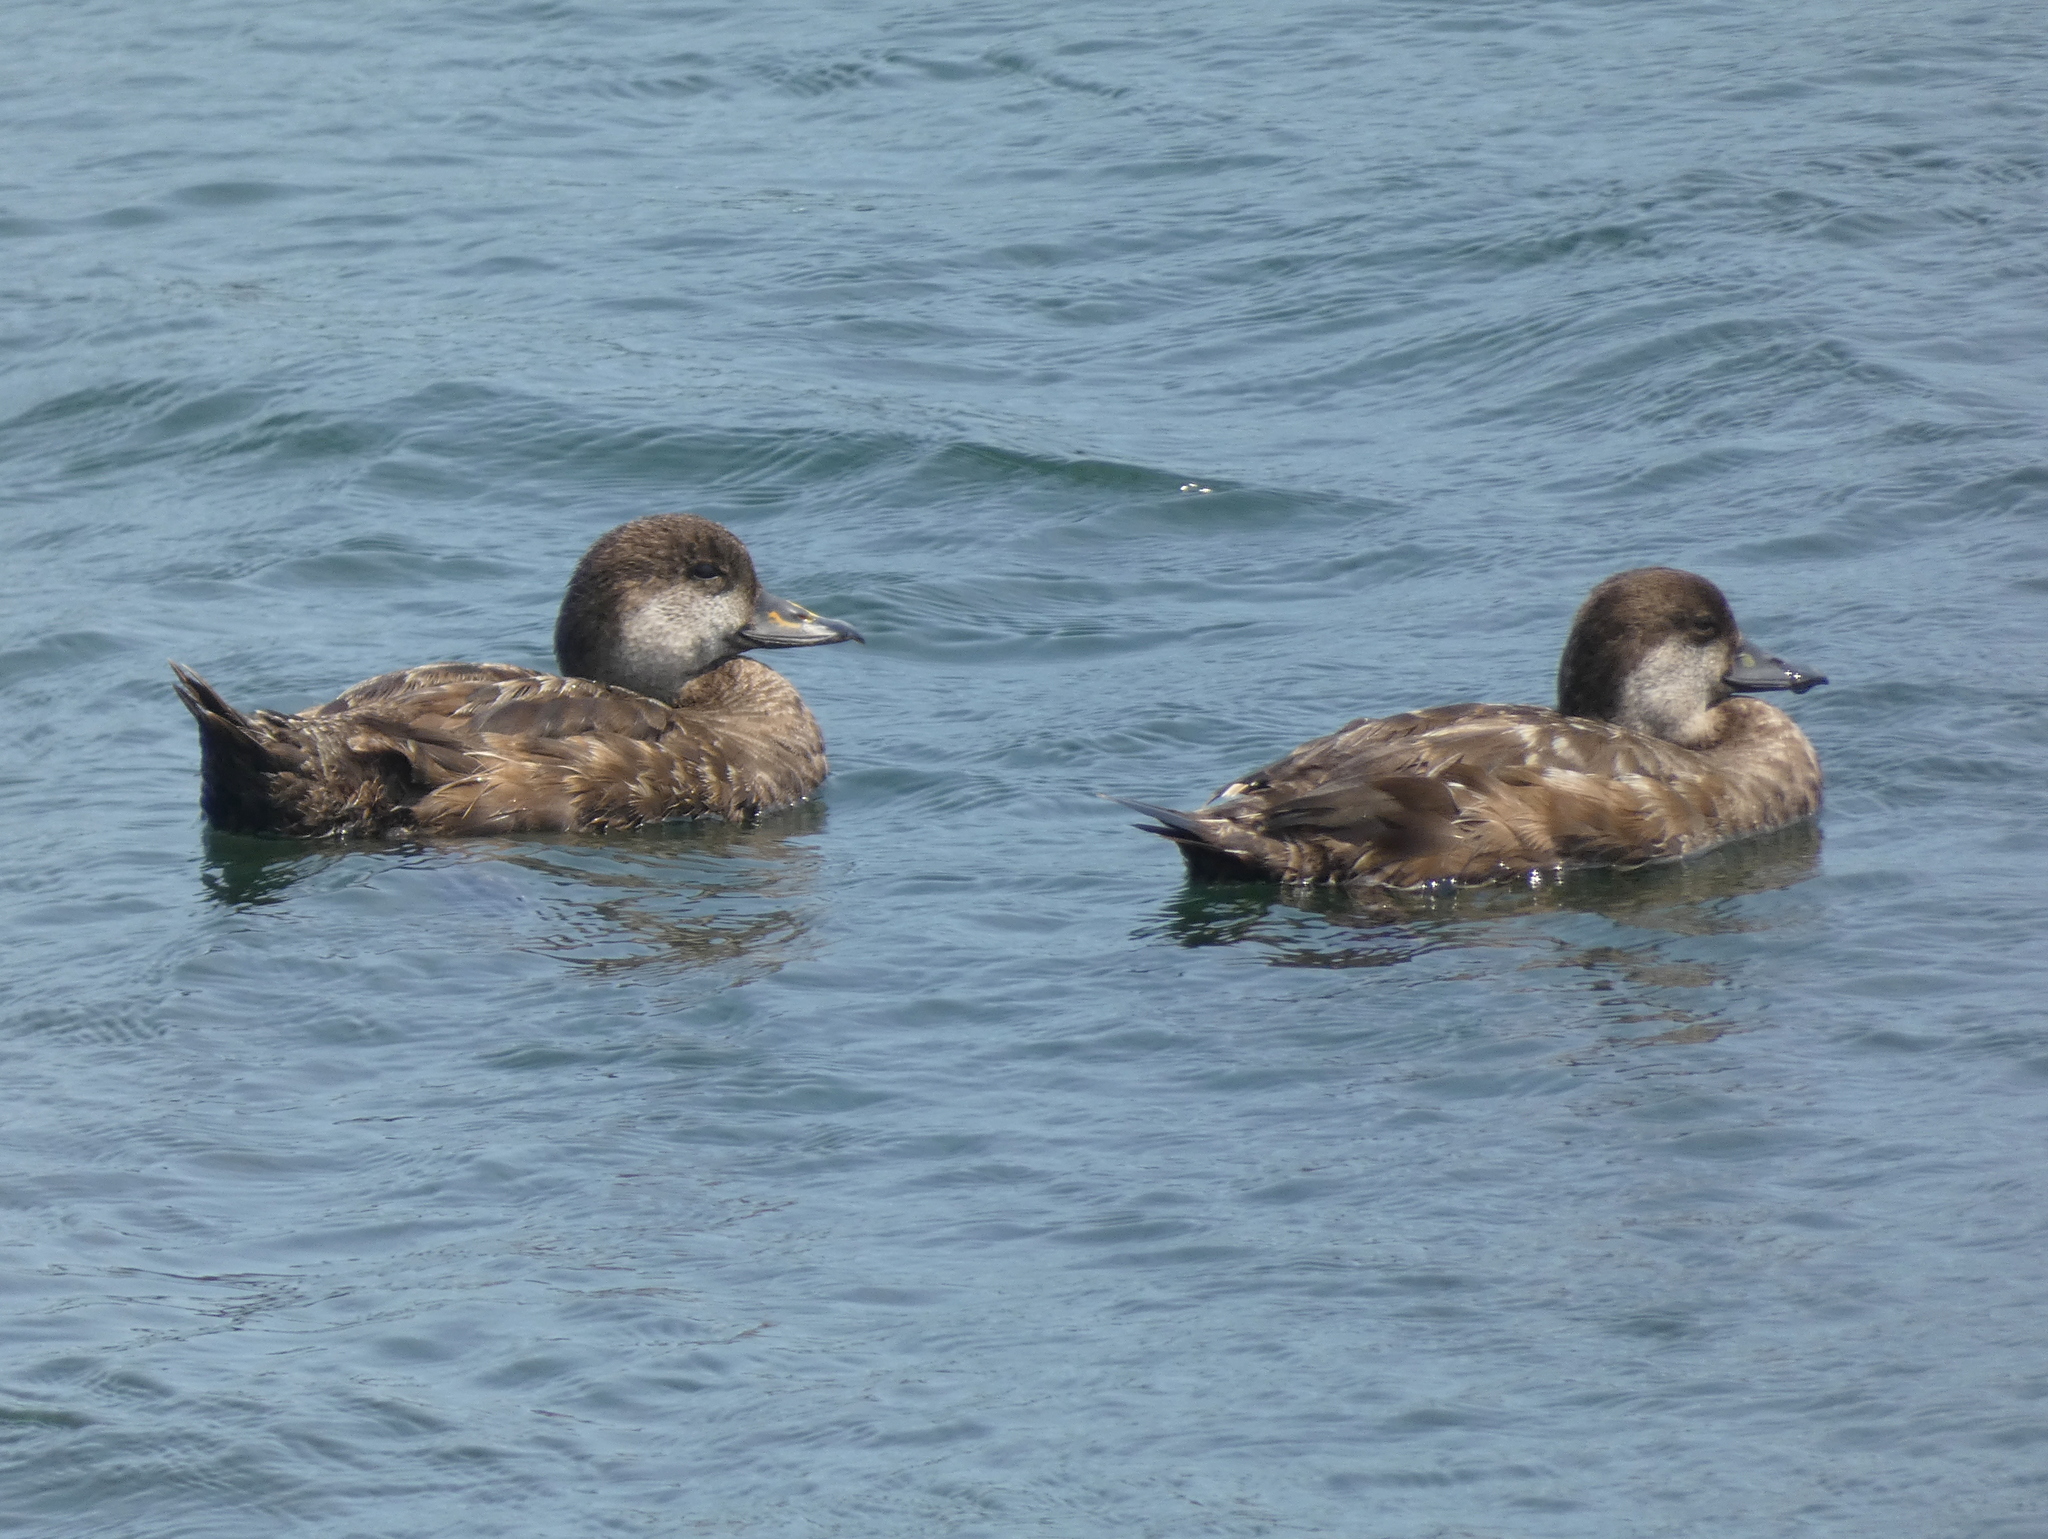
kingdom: Animalia
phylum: Chordata
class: Aves
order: Anseriformes
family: Anatidae
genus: Melanitta
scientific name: Melanitta americana
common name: Black scoter
